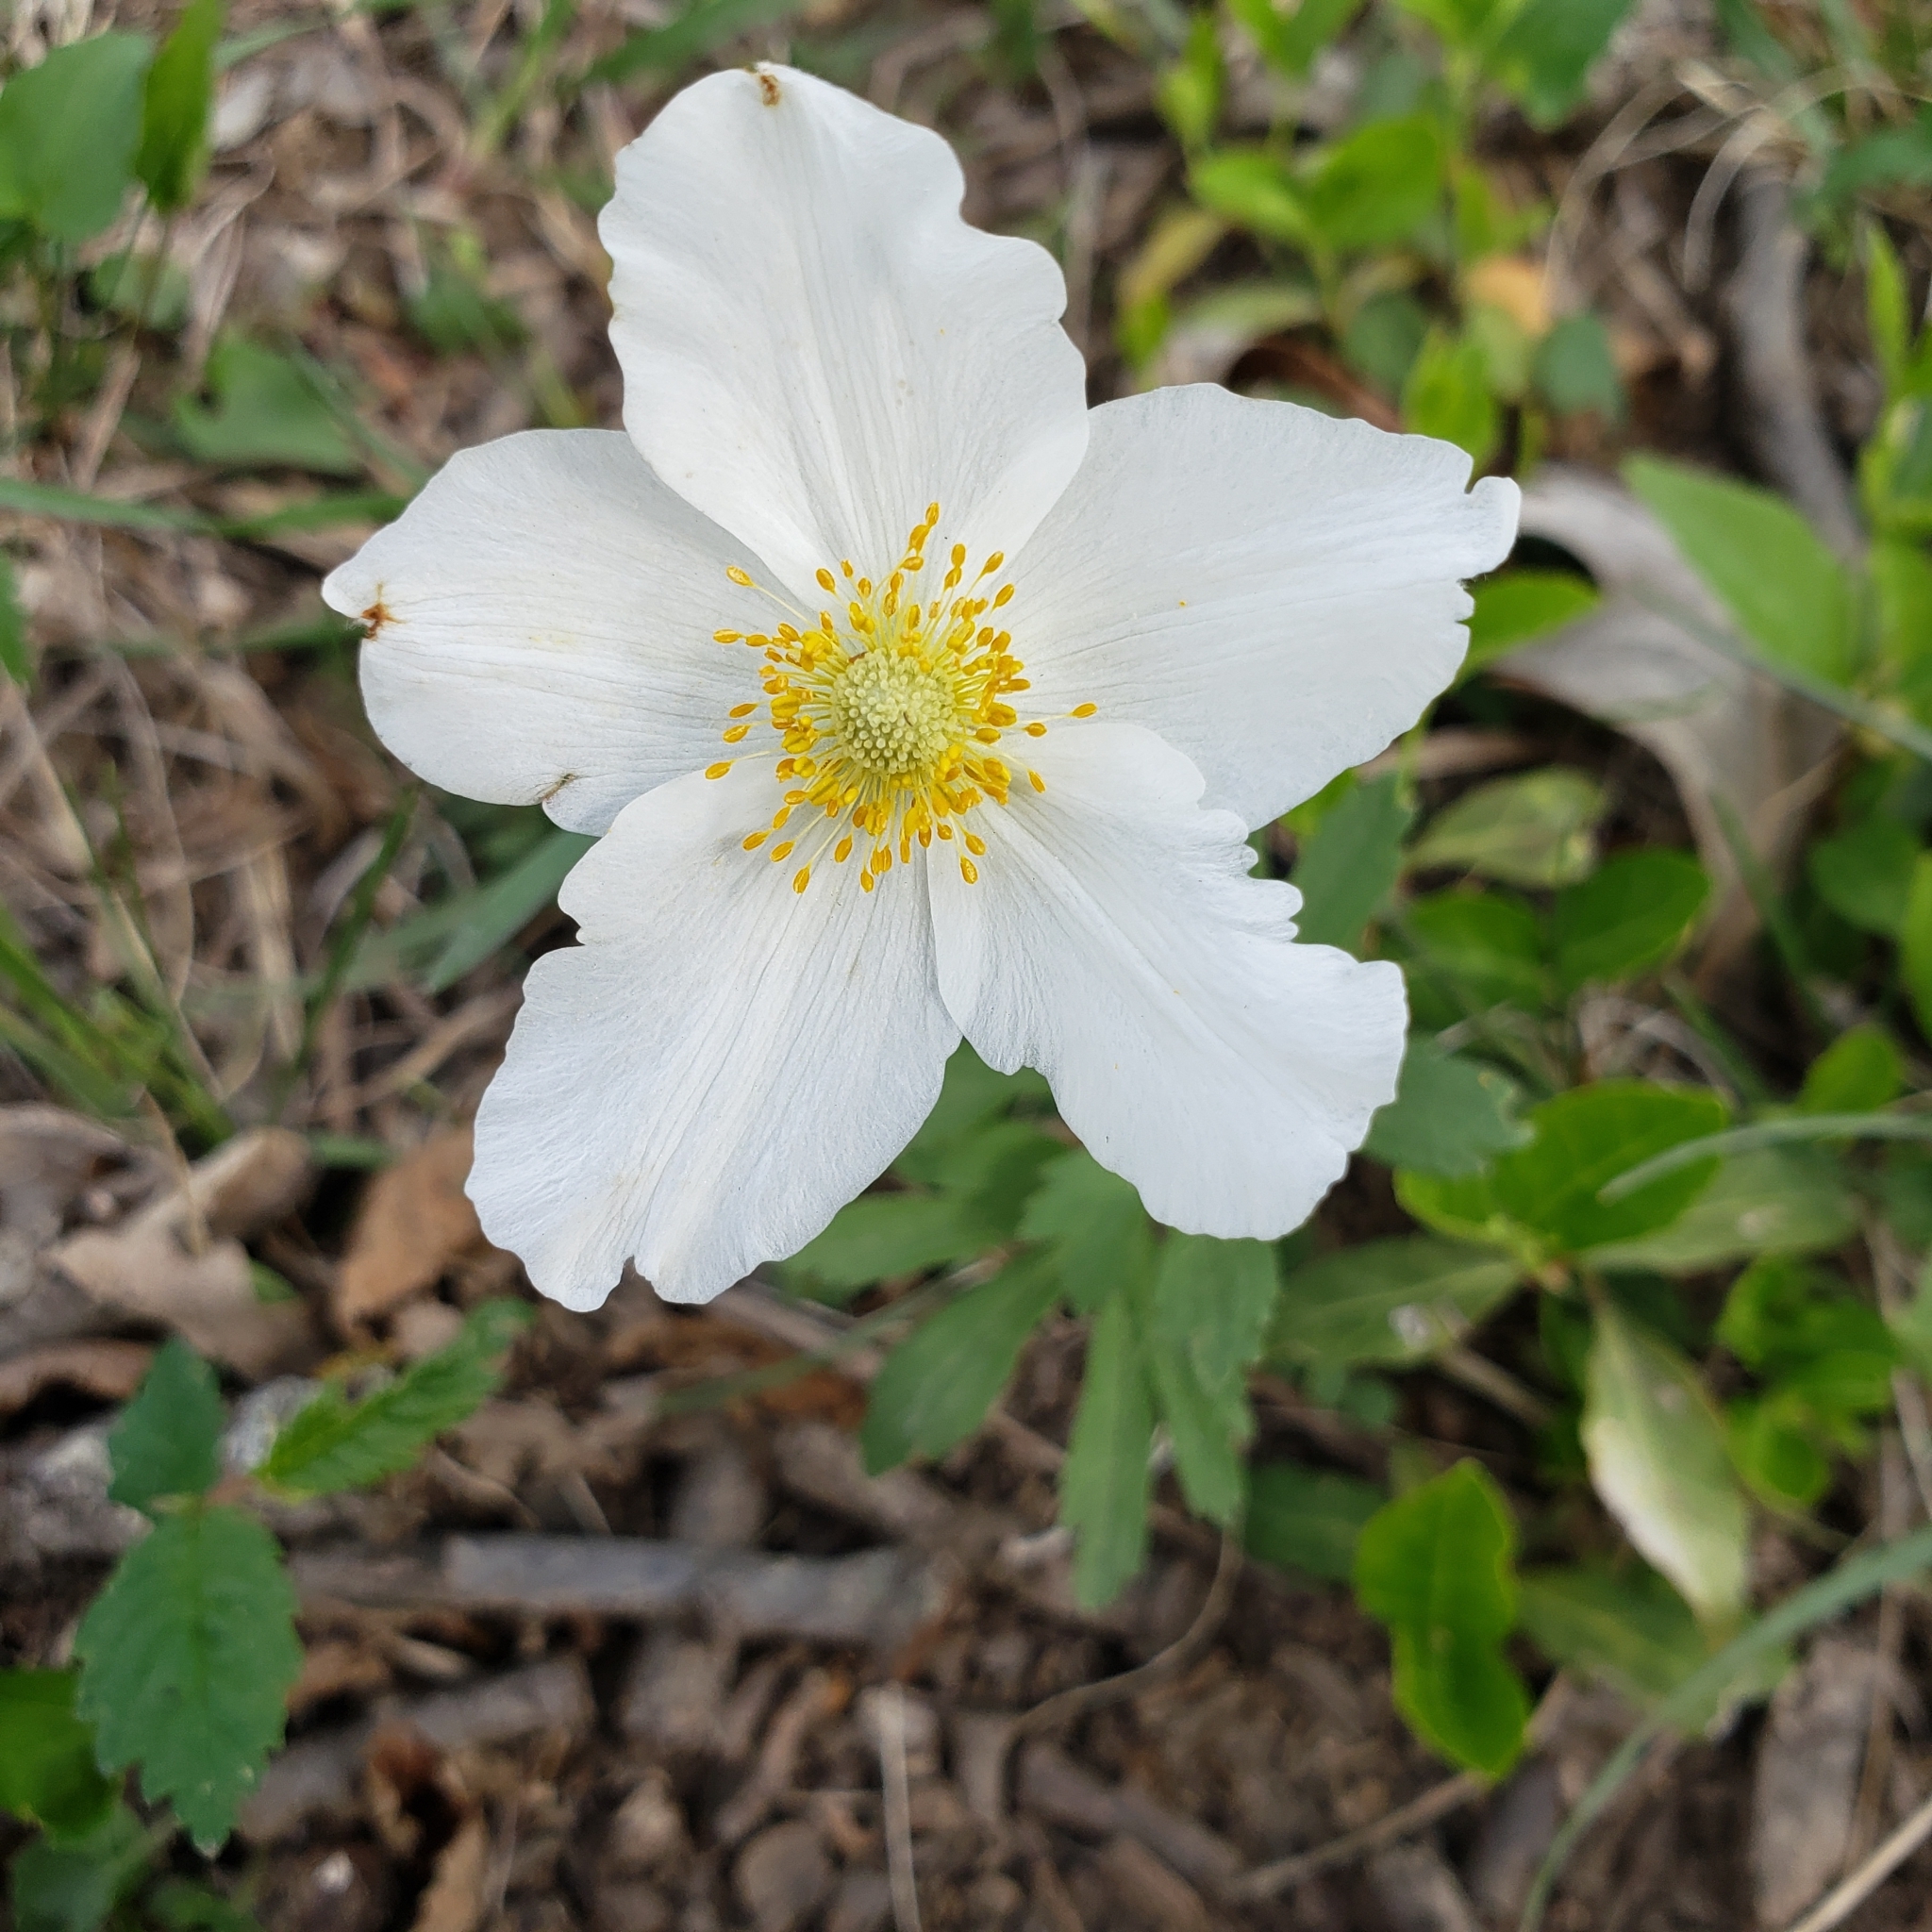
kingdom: Plantae
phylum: Tracheophyta
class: Magnoliopsida
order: Ranunculales
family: Ranunculaceae
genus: Anemone
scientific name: Anemone sylvestris
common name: Snowdrop anemone
